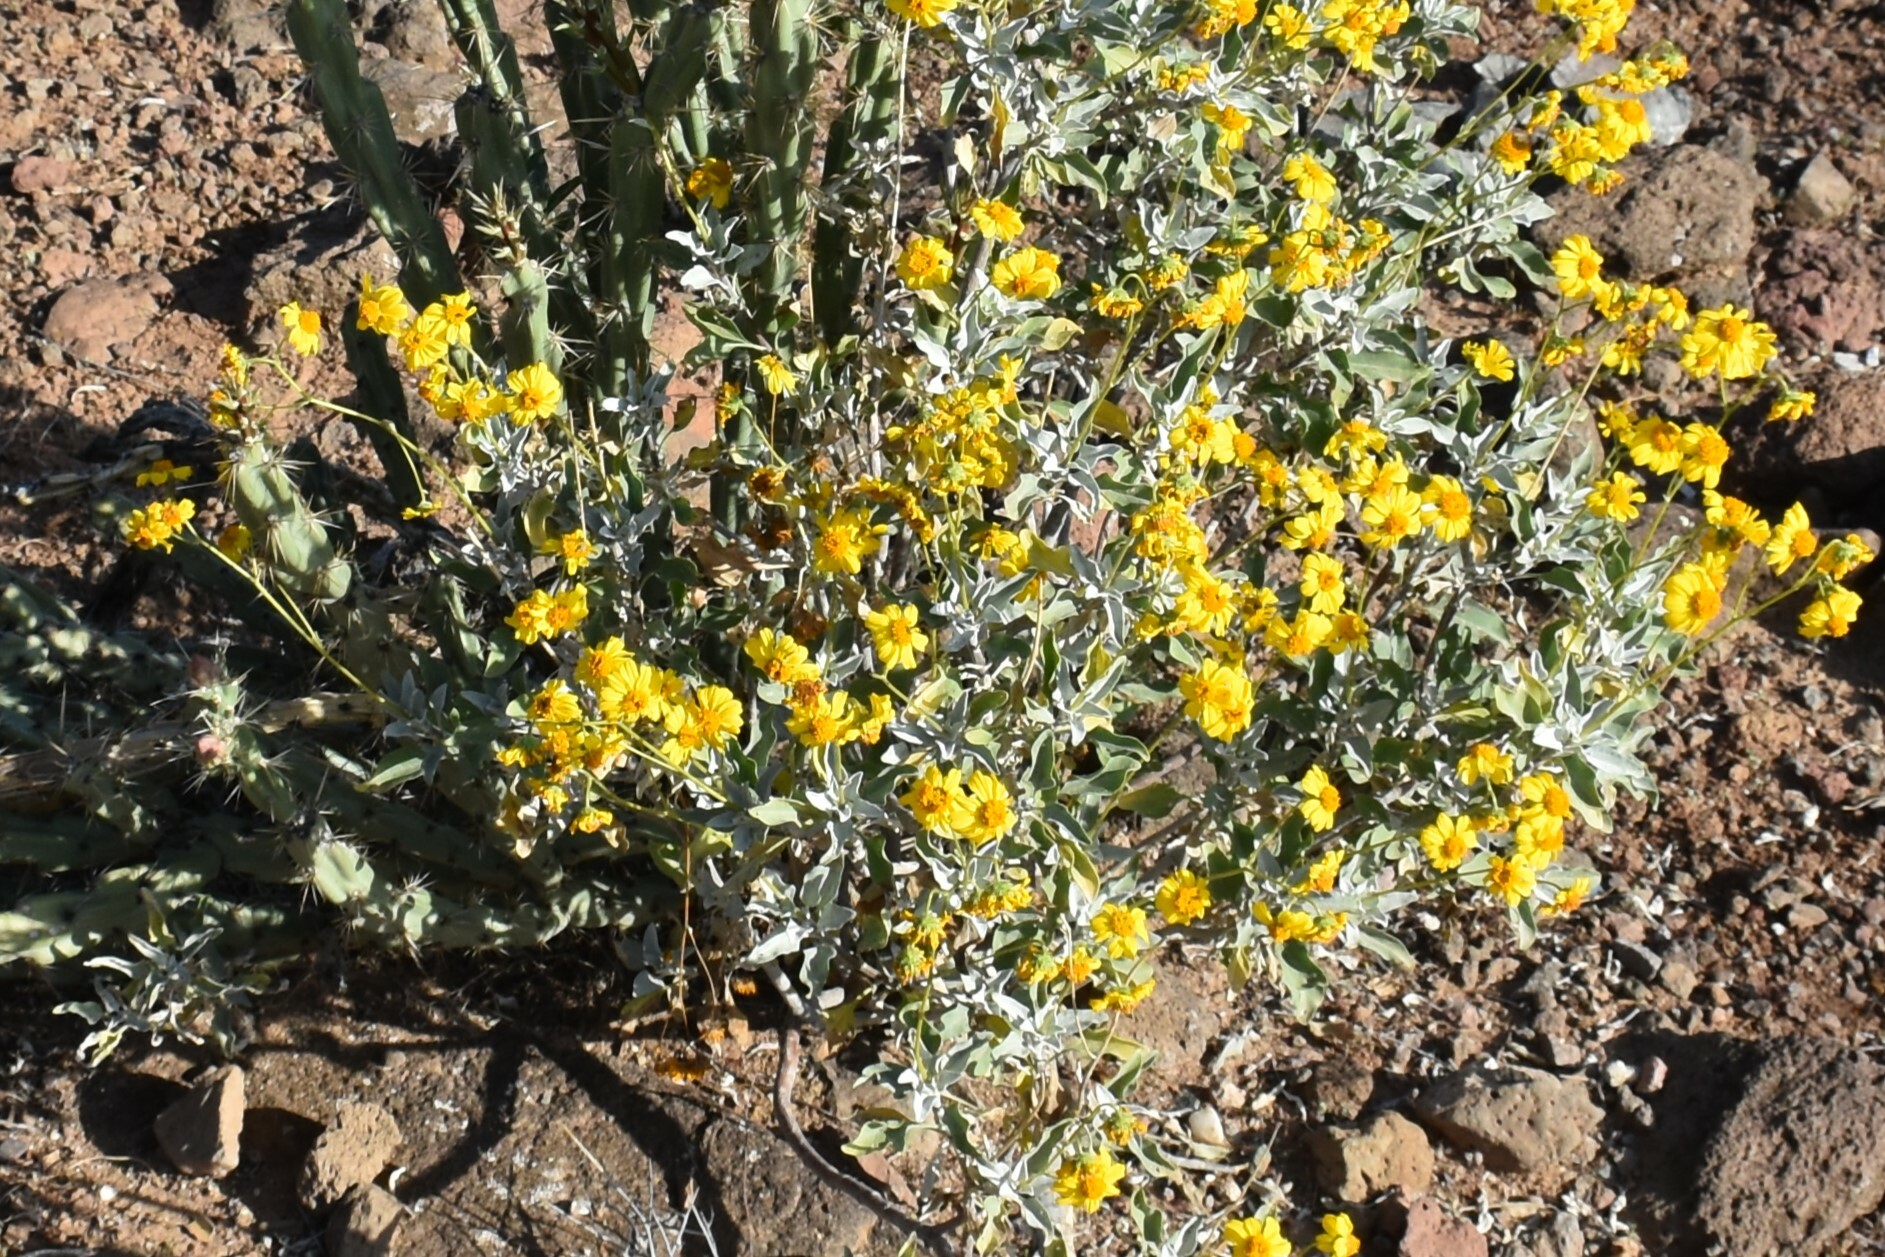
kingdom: Plantae
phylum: Tracheophyta
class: Magnoliopsida
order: Asterales
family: Asteraceae
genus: Encelia
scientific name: Encelia farinosa
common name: Brittlebush
